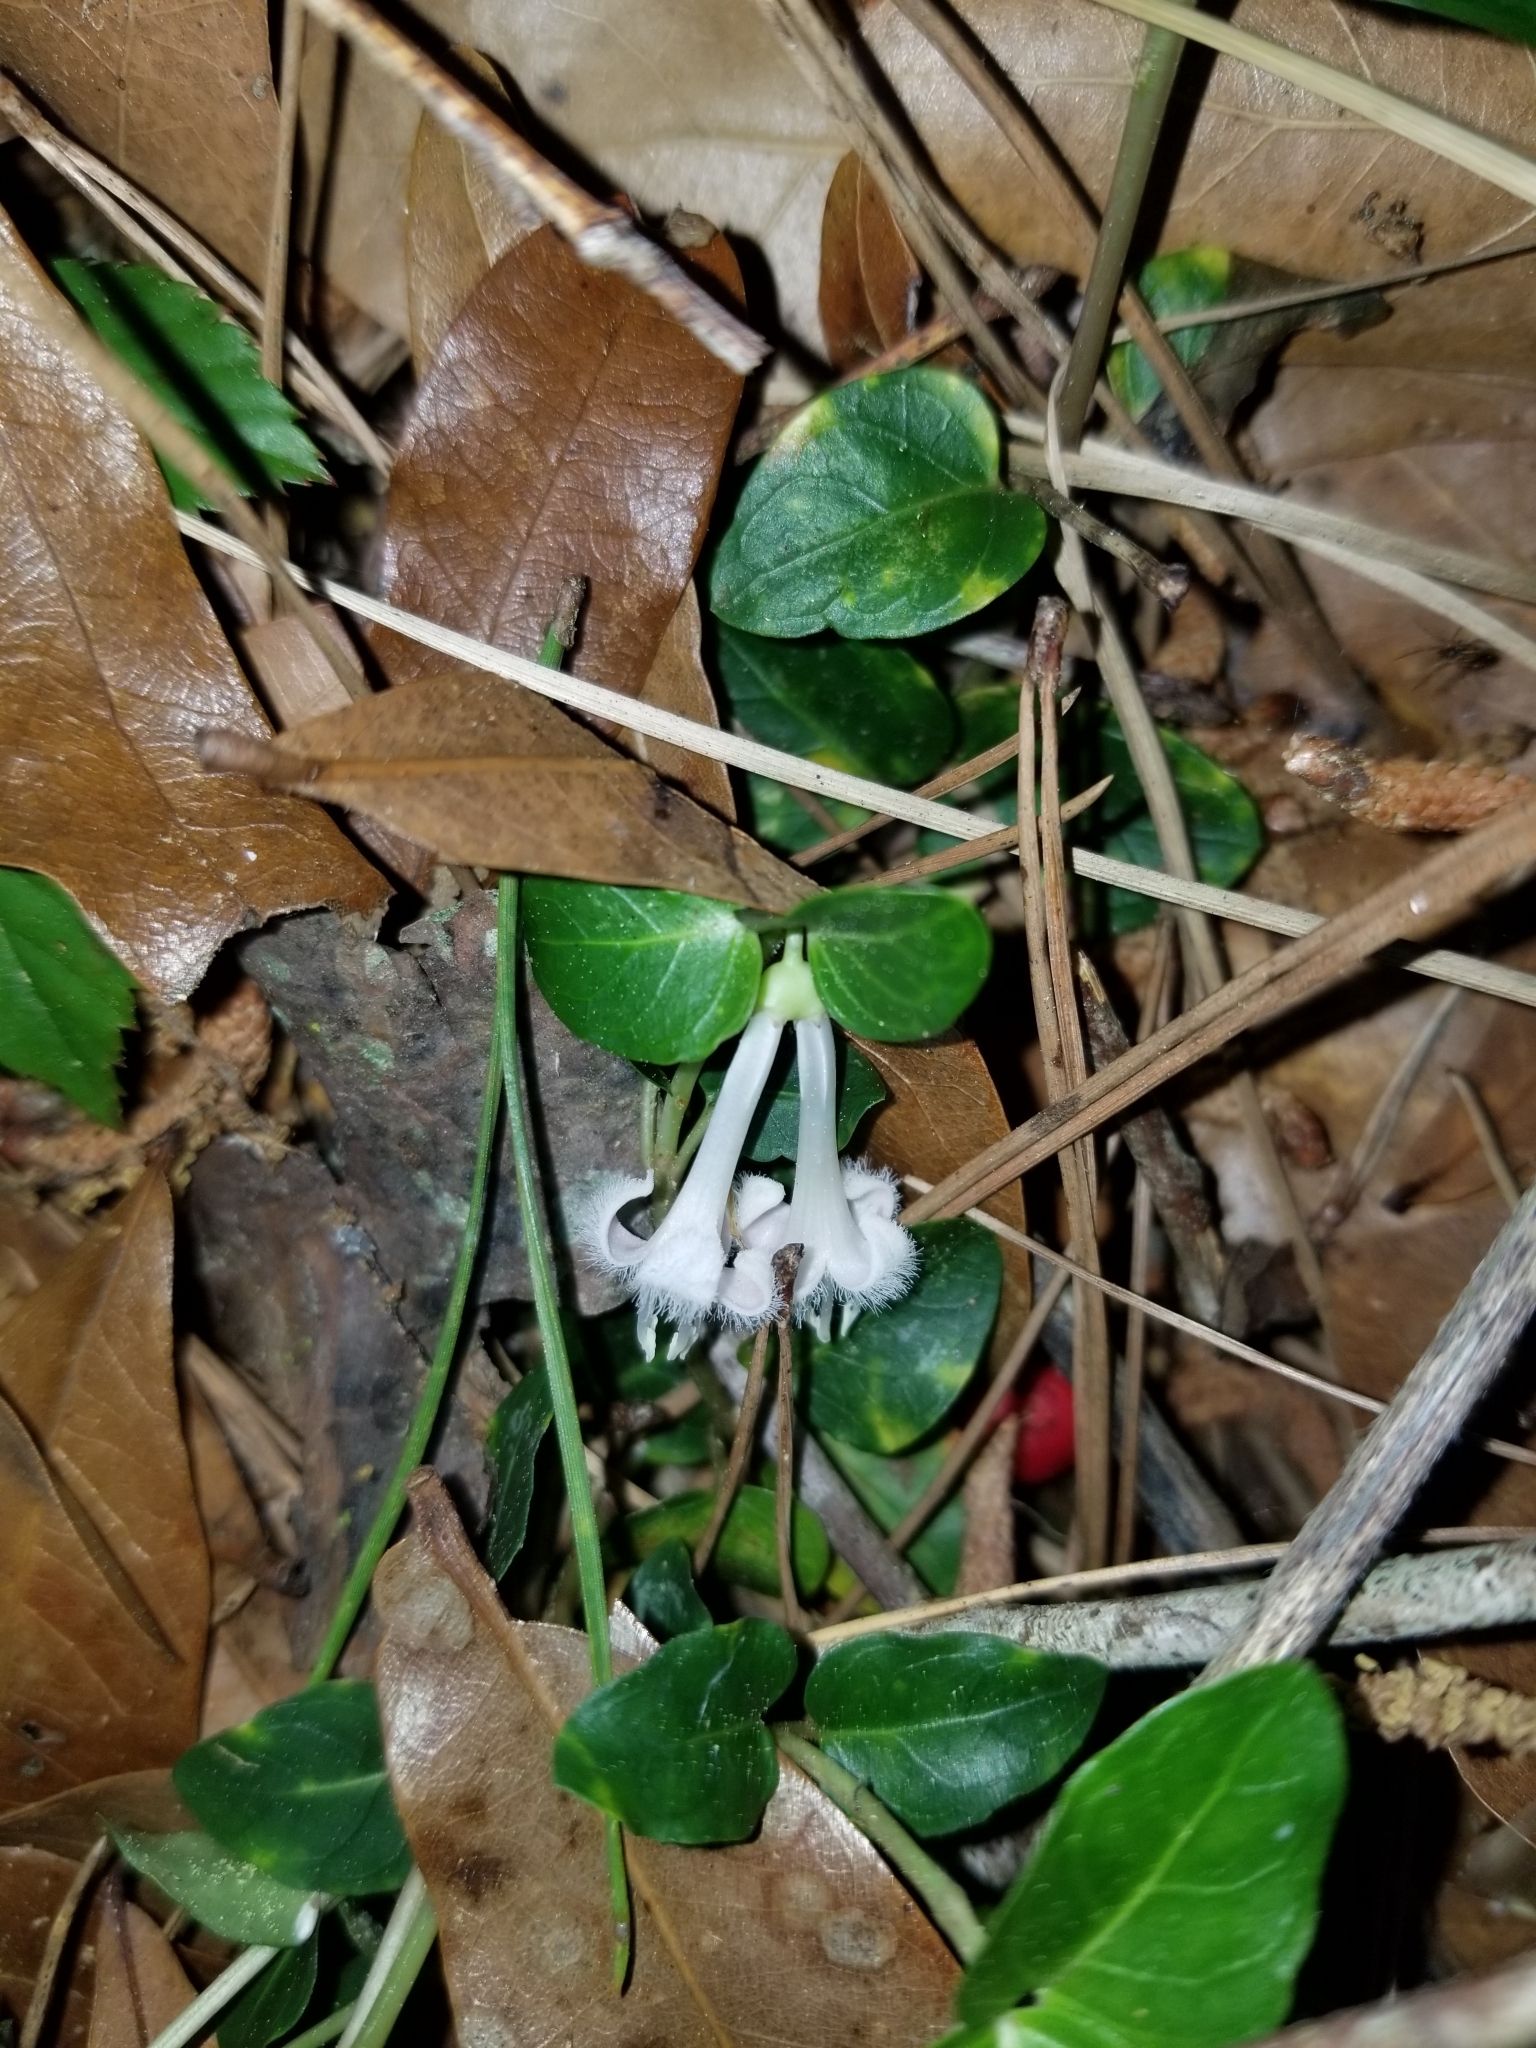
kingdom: Plantae
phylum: Tracheophyta
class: Magnoliopsida
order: Gentianales
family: Rubiaceae
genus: Mitchella
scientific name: Mitchella repens
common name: Partridge-berry
